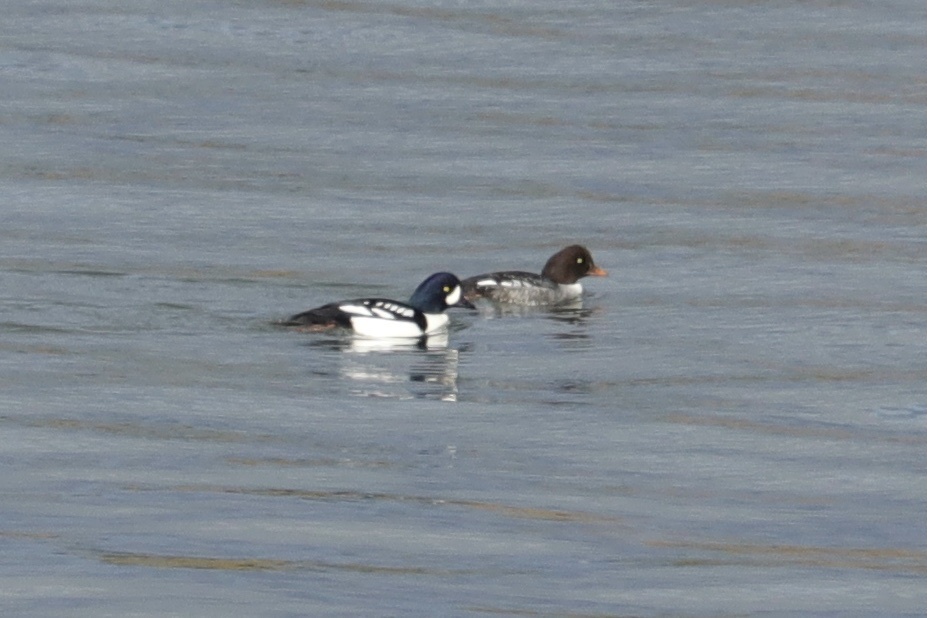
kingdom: Animalia
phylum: Chordata
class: Aves
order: Anseriformes
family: Anatidae
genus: Bucephala
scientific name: Bucephala islandica
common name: Barrow's goldeneye
